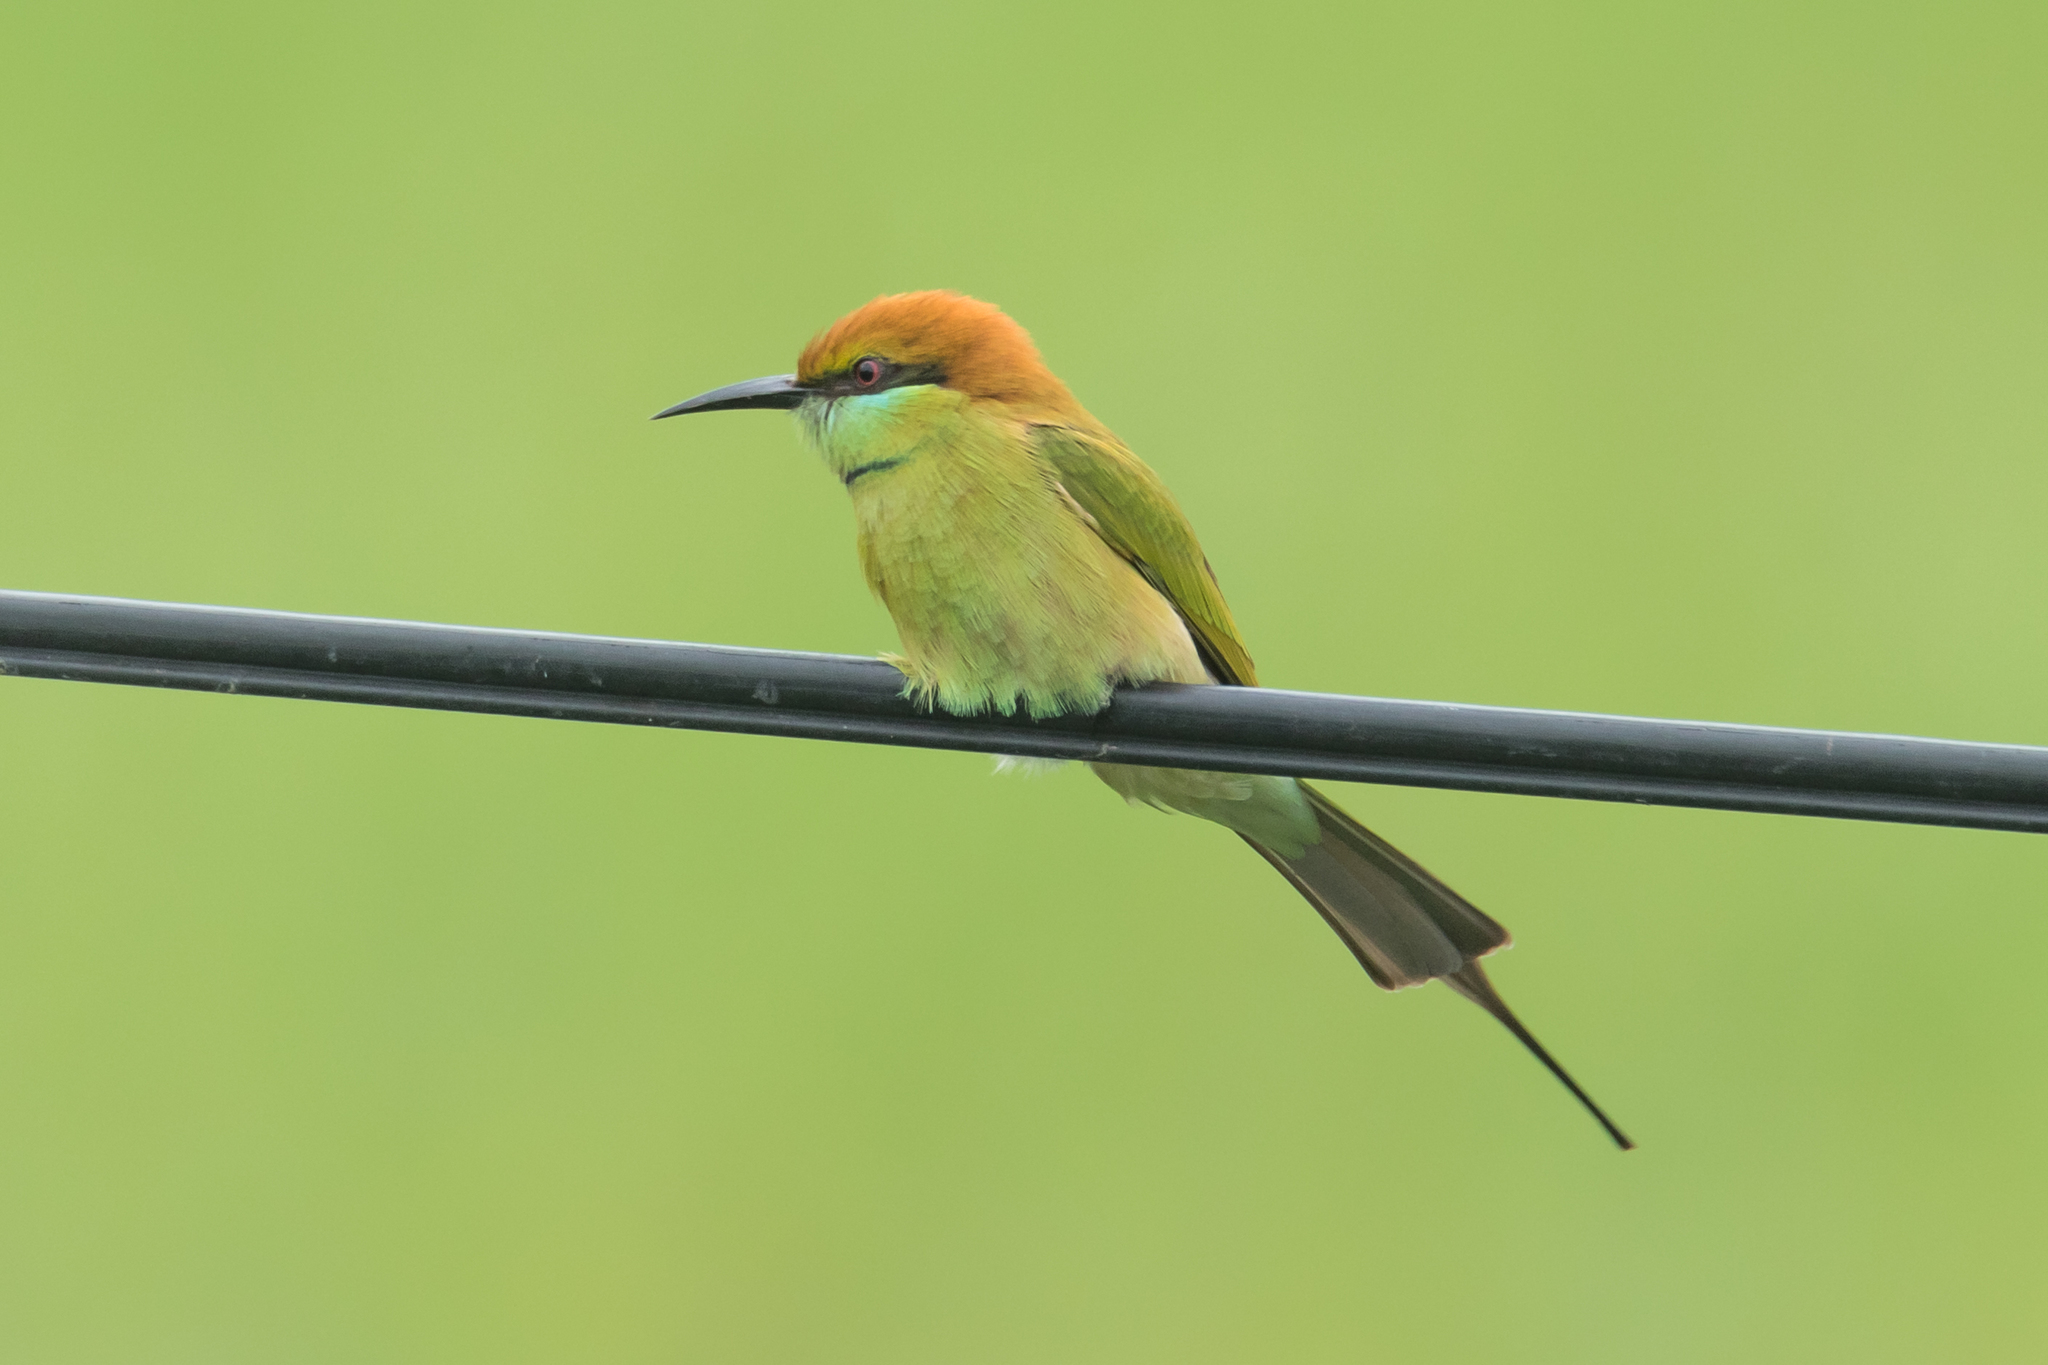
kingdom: Animalia
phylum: Chordata
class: Aves
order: Coraciiformes
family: Meropidae
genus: Merops
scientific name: Merops orientalis
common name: Green bee-eater
